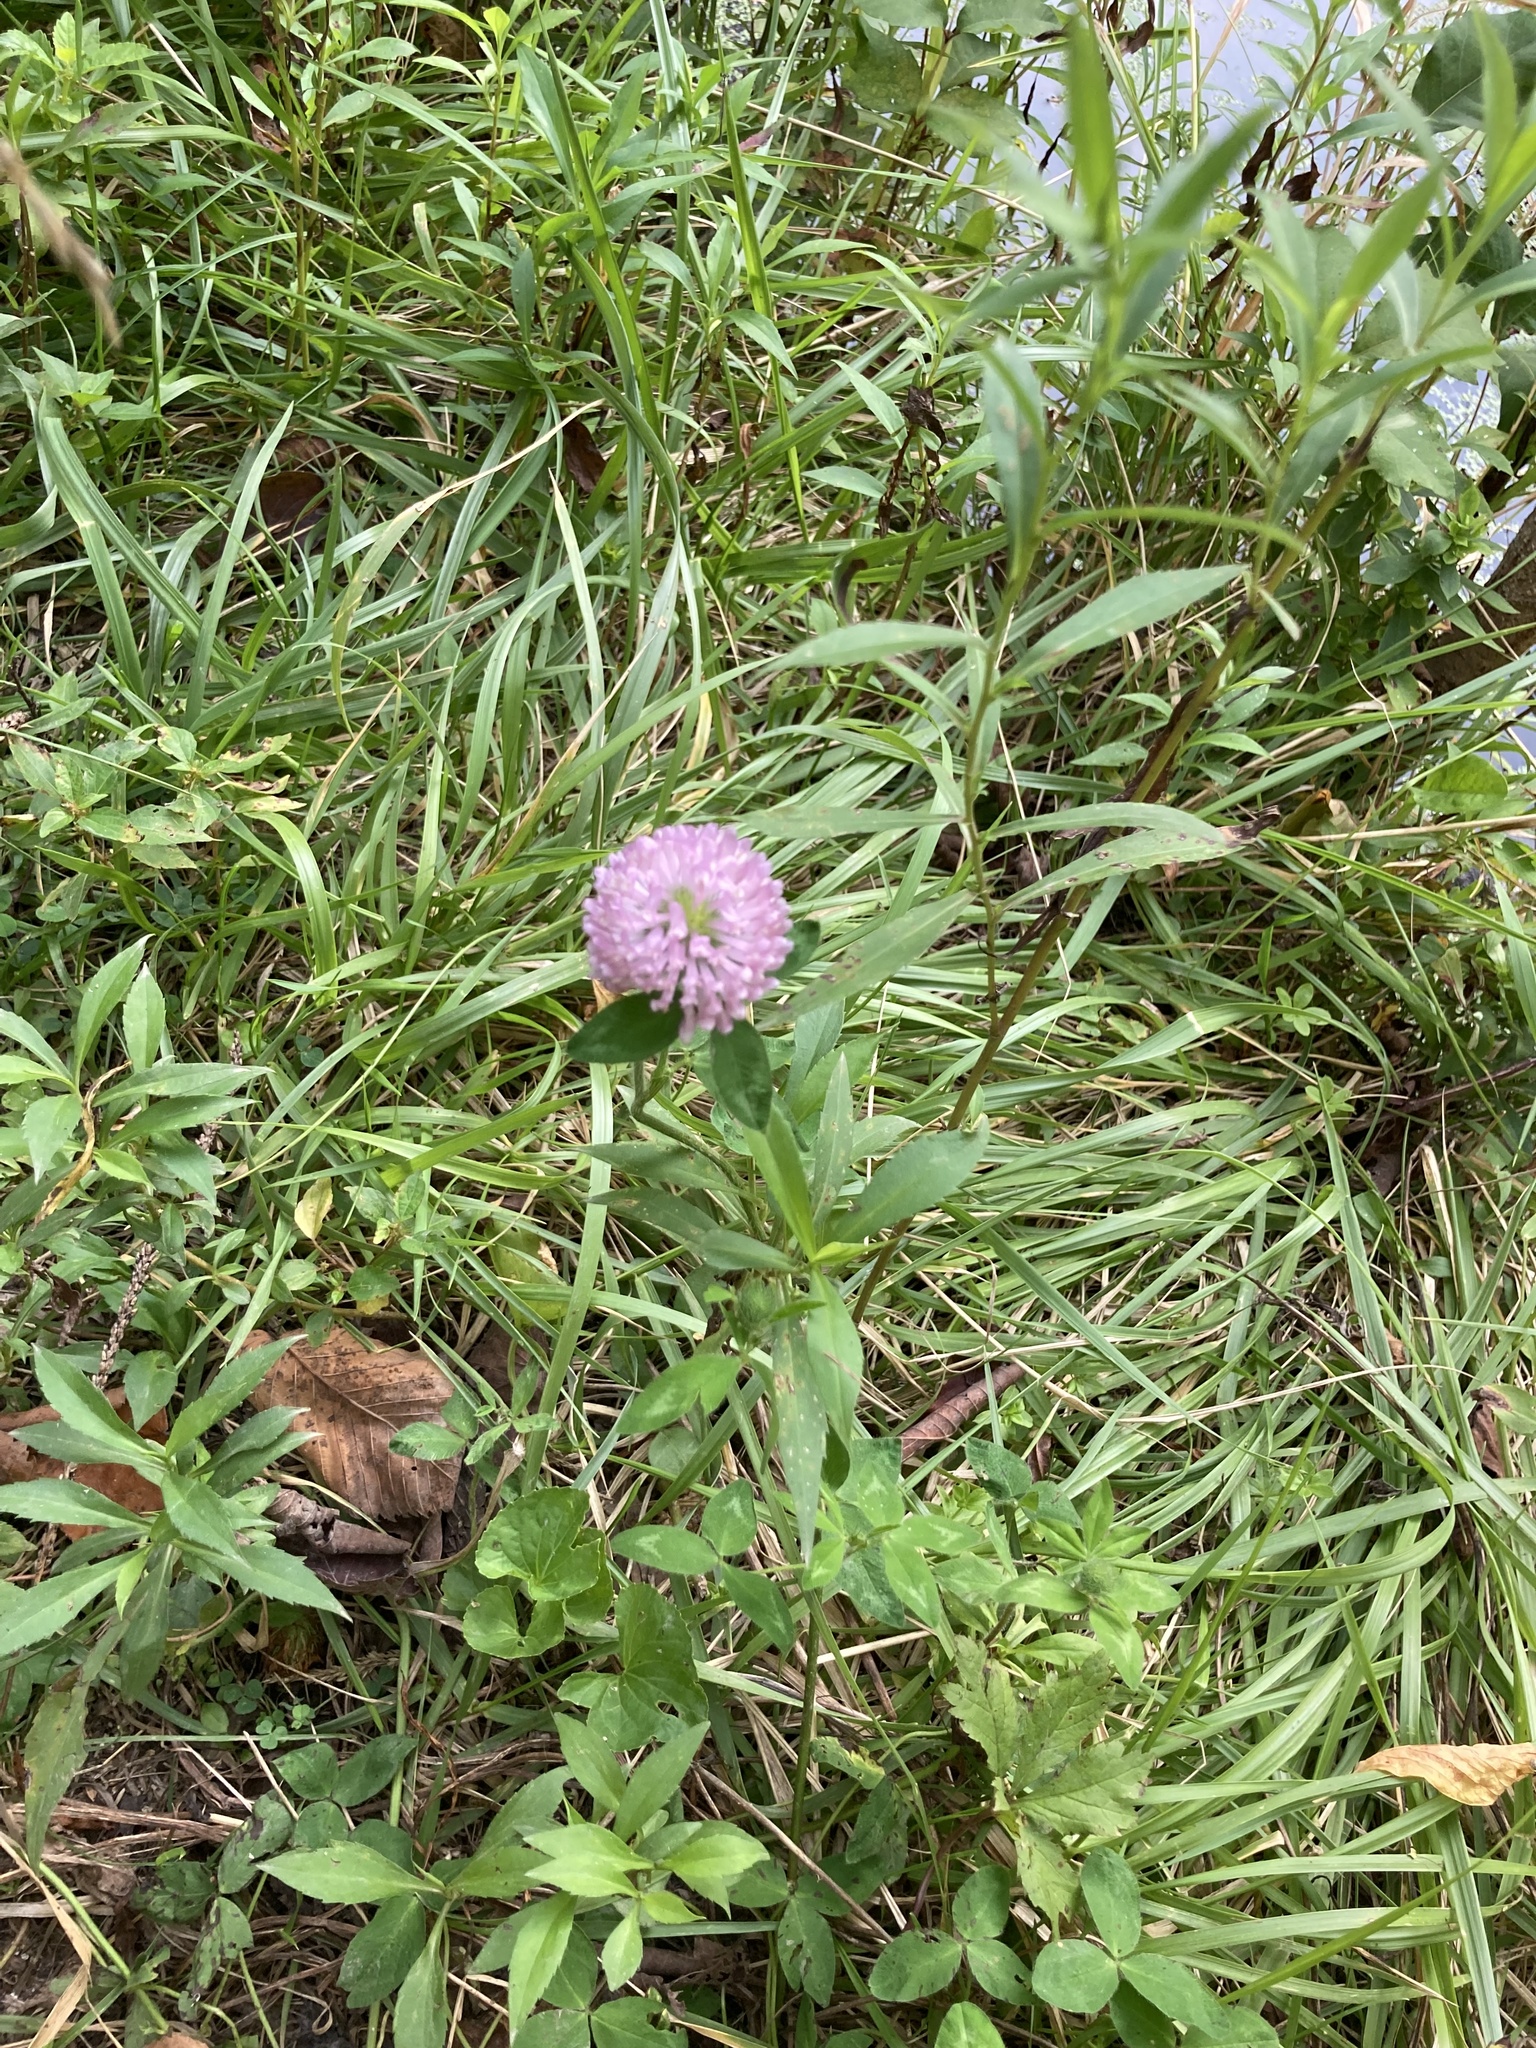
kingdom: Plantae
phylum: Tracheophyta
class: Magnoliopsida
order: Fabales
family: Fabaceae
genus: Trifolium
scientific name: Trifolium pratense
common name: Red clover
